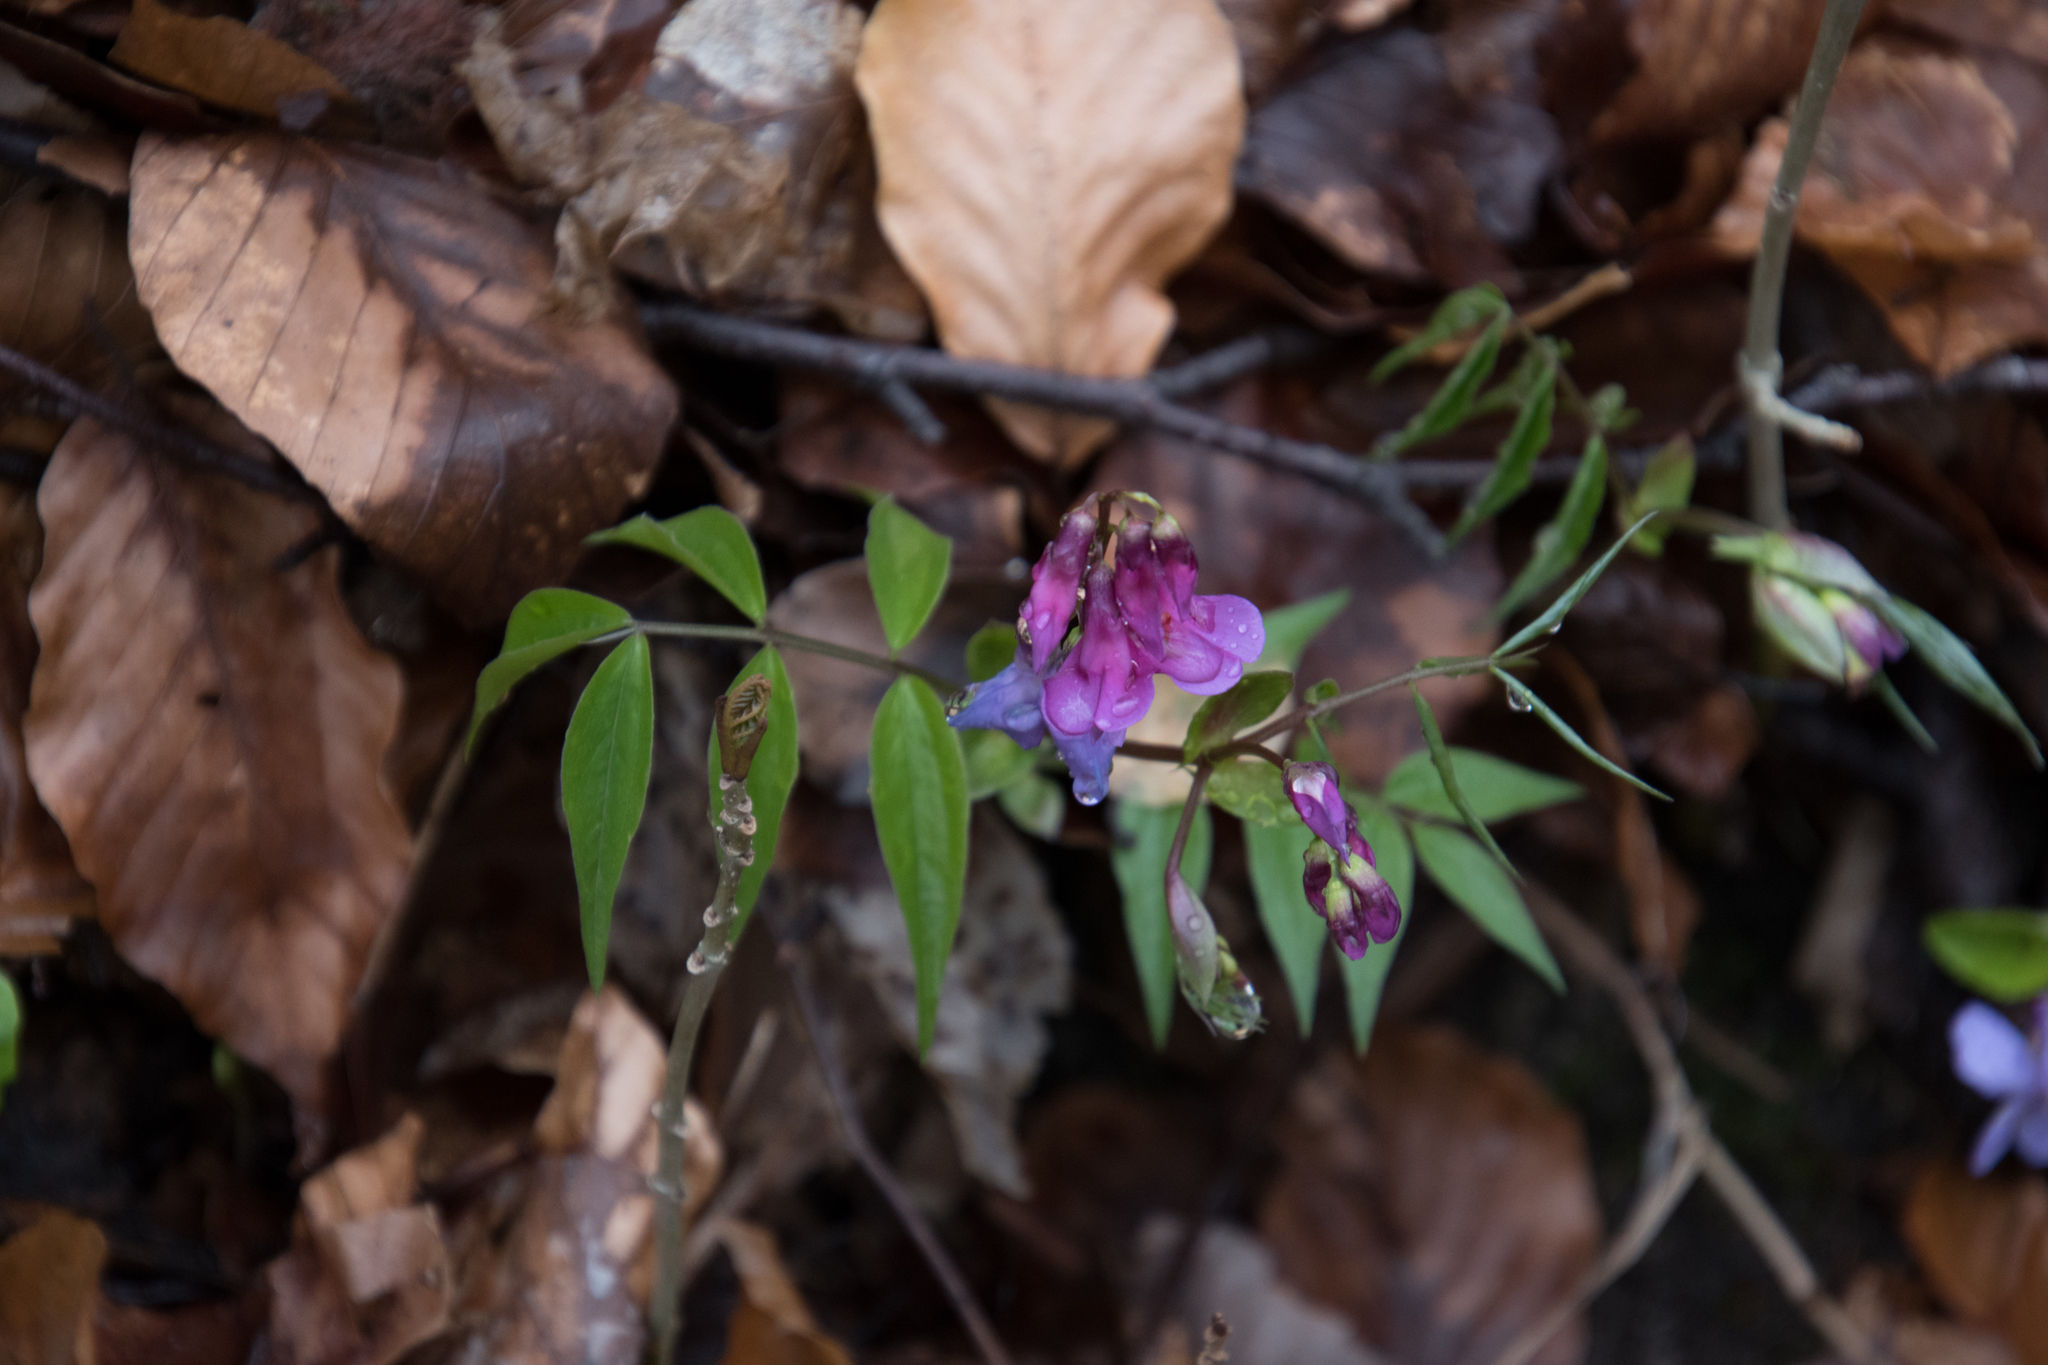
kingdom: Plantae
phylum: Tracheophyta
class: Magnoliopsida
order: Fabales
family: Fabaceae
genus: Lathyrus
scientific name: Lathyrus vernus
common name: Spring pea
